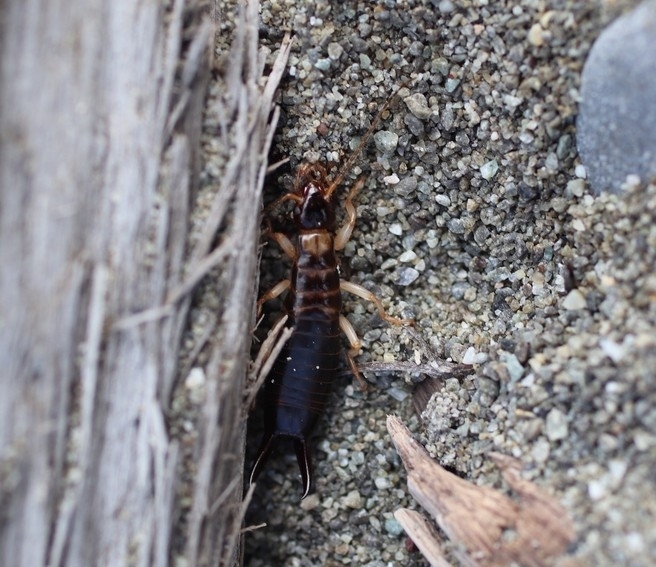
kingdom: Animalia
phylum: Arthropoda
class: Insecta
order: Dermaptera
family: Anisolabididae
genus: Anisolabis
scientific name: Anisolabis littorea
